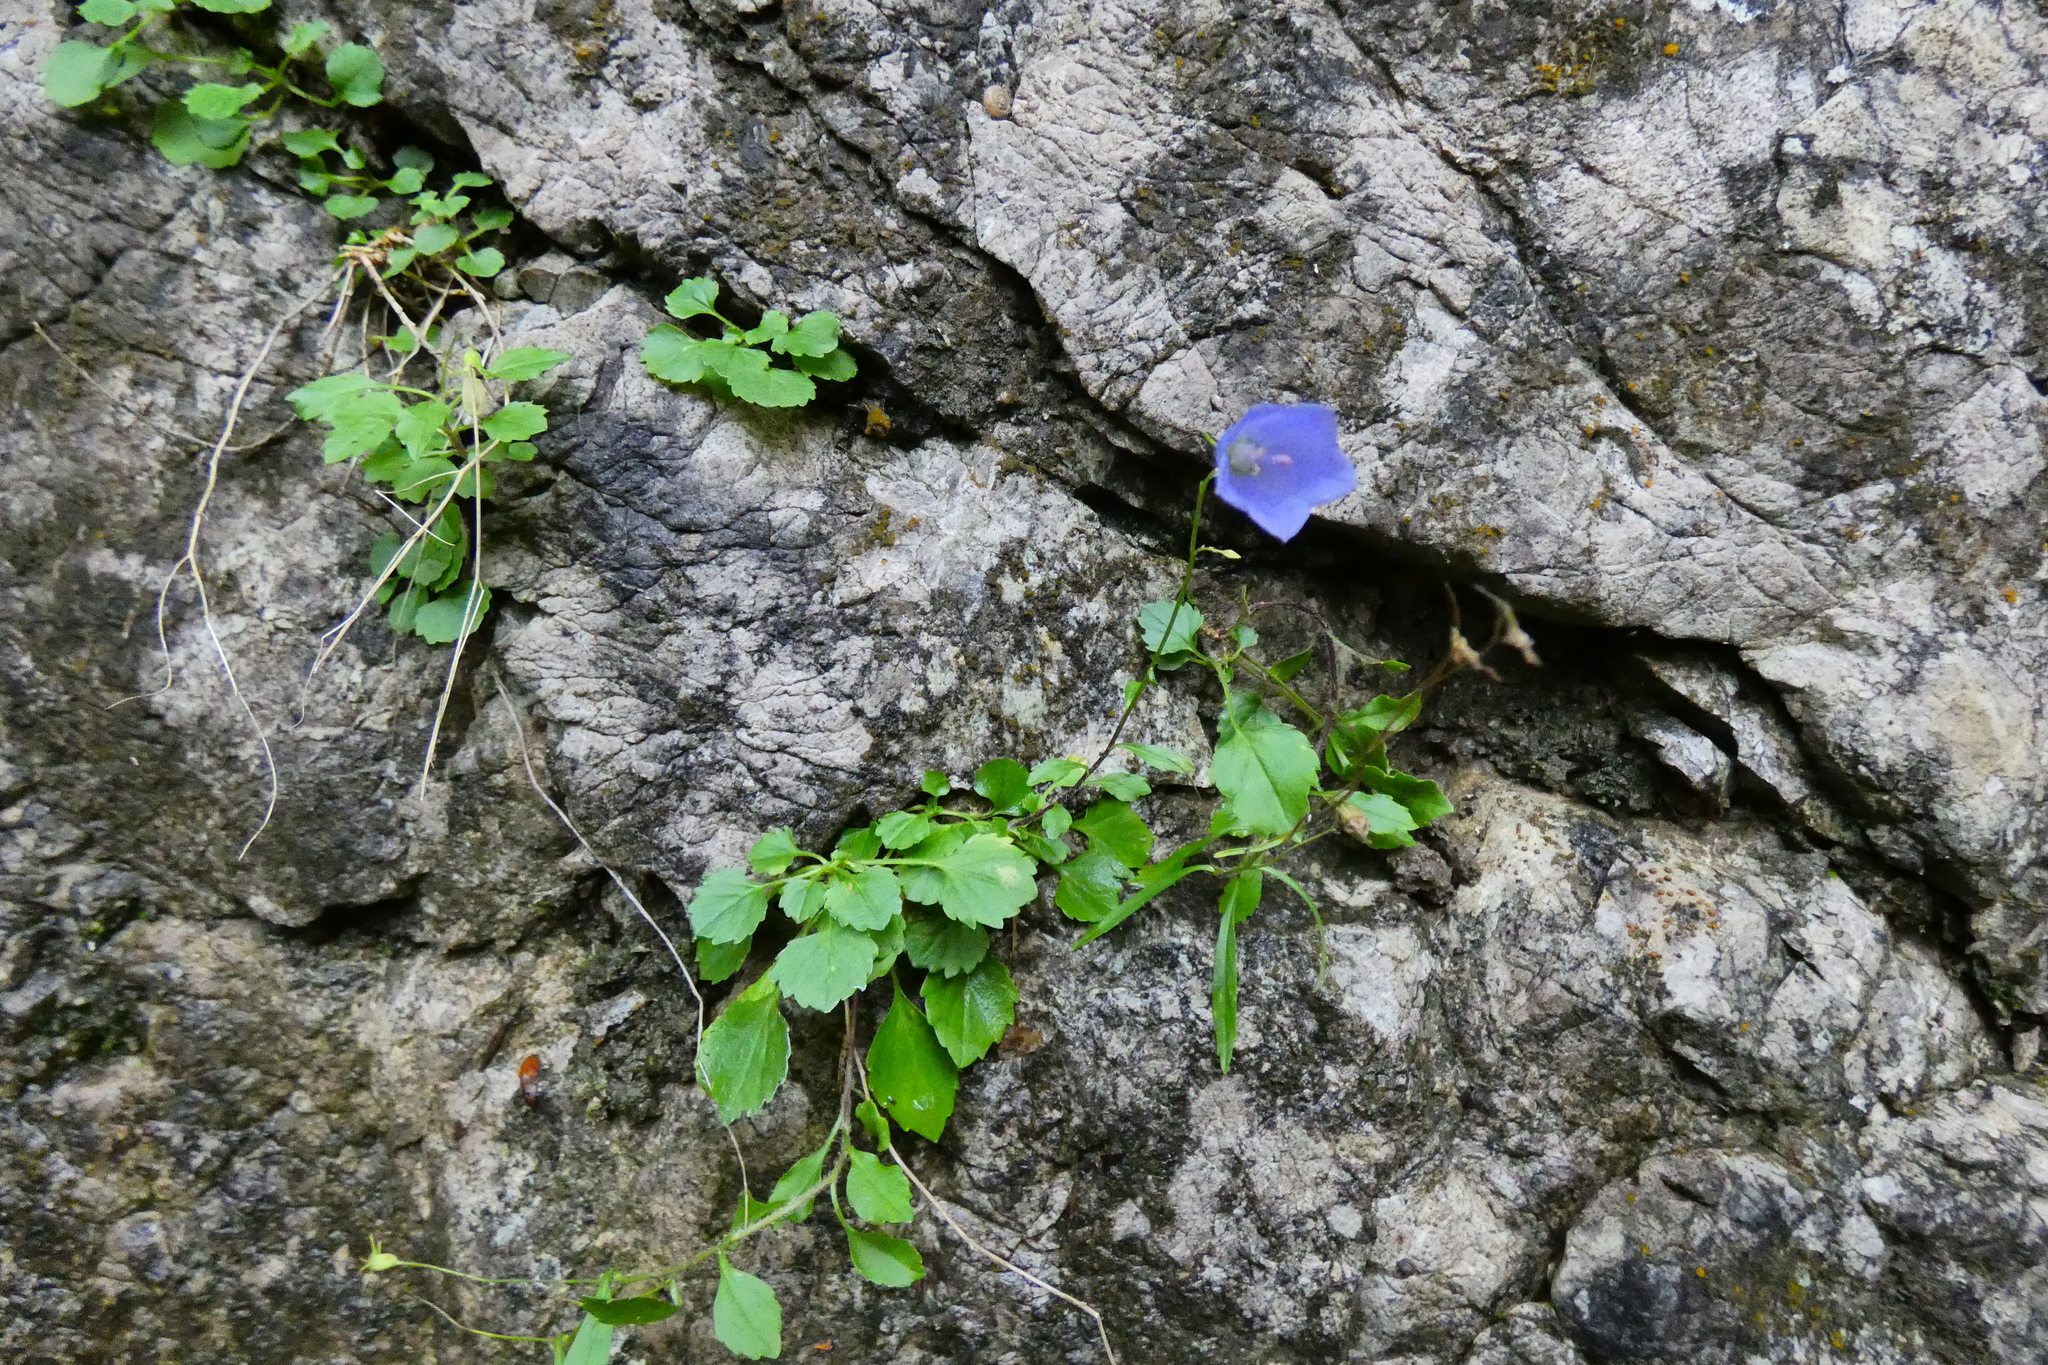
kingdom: Plantae
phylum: Tracheophyta
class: Magnoliopsida
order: Asterales
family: Campanulaceae
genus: Campanula
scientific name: Campanula cochleariifolia
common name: Fairies'-thimbles
